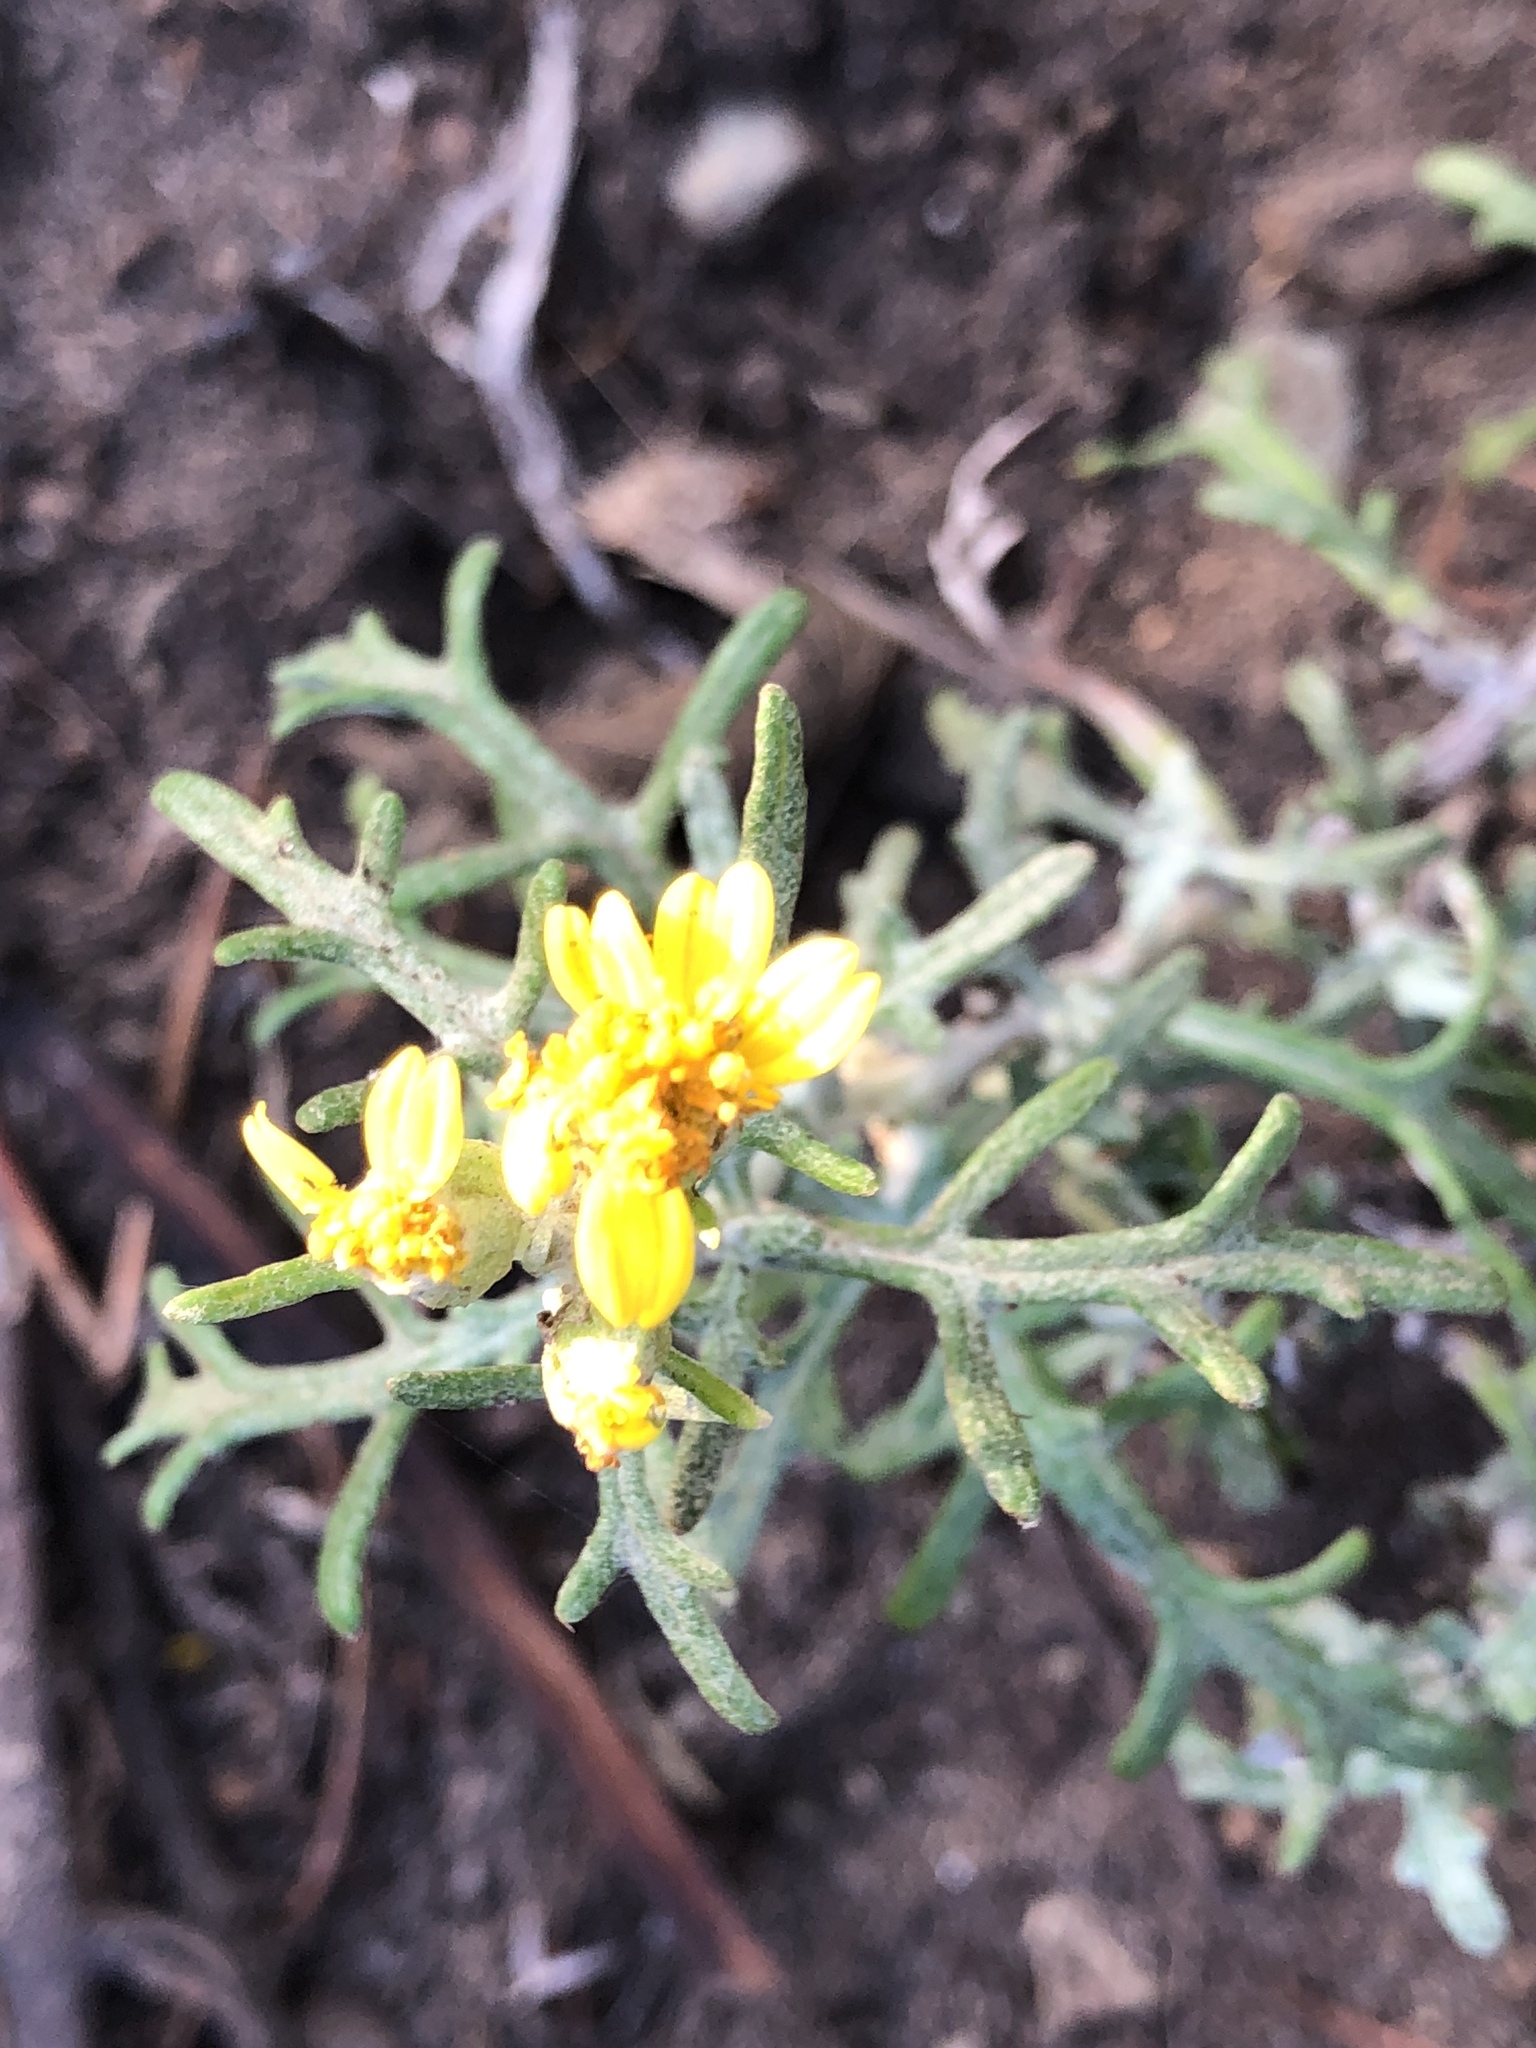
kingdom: Plantae
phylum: Tracheophyta
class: Magnoliopsida
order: Asterales
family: Asteraceae
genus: Eriophyllum
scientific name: Eriophyllum staechadifolium
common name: Lizardtail
